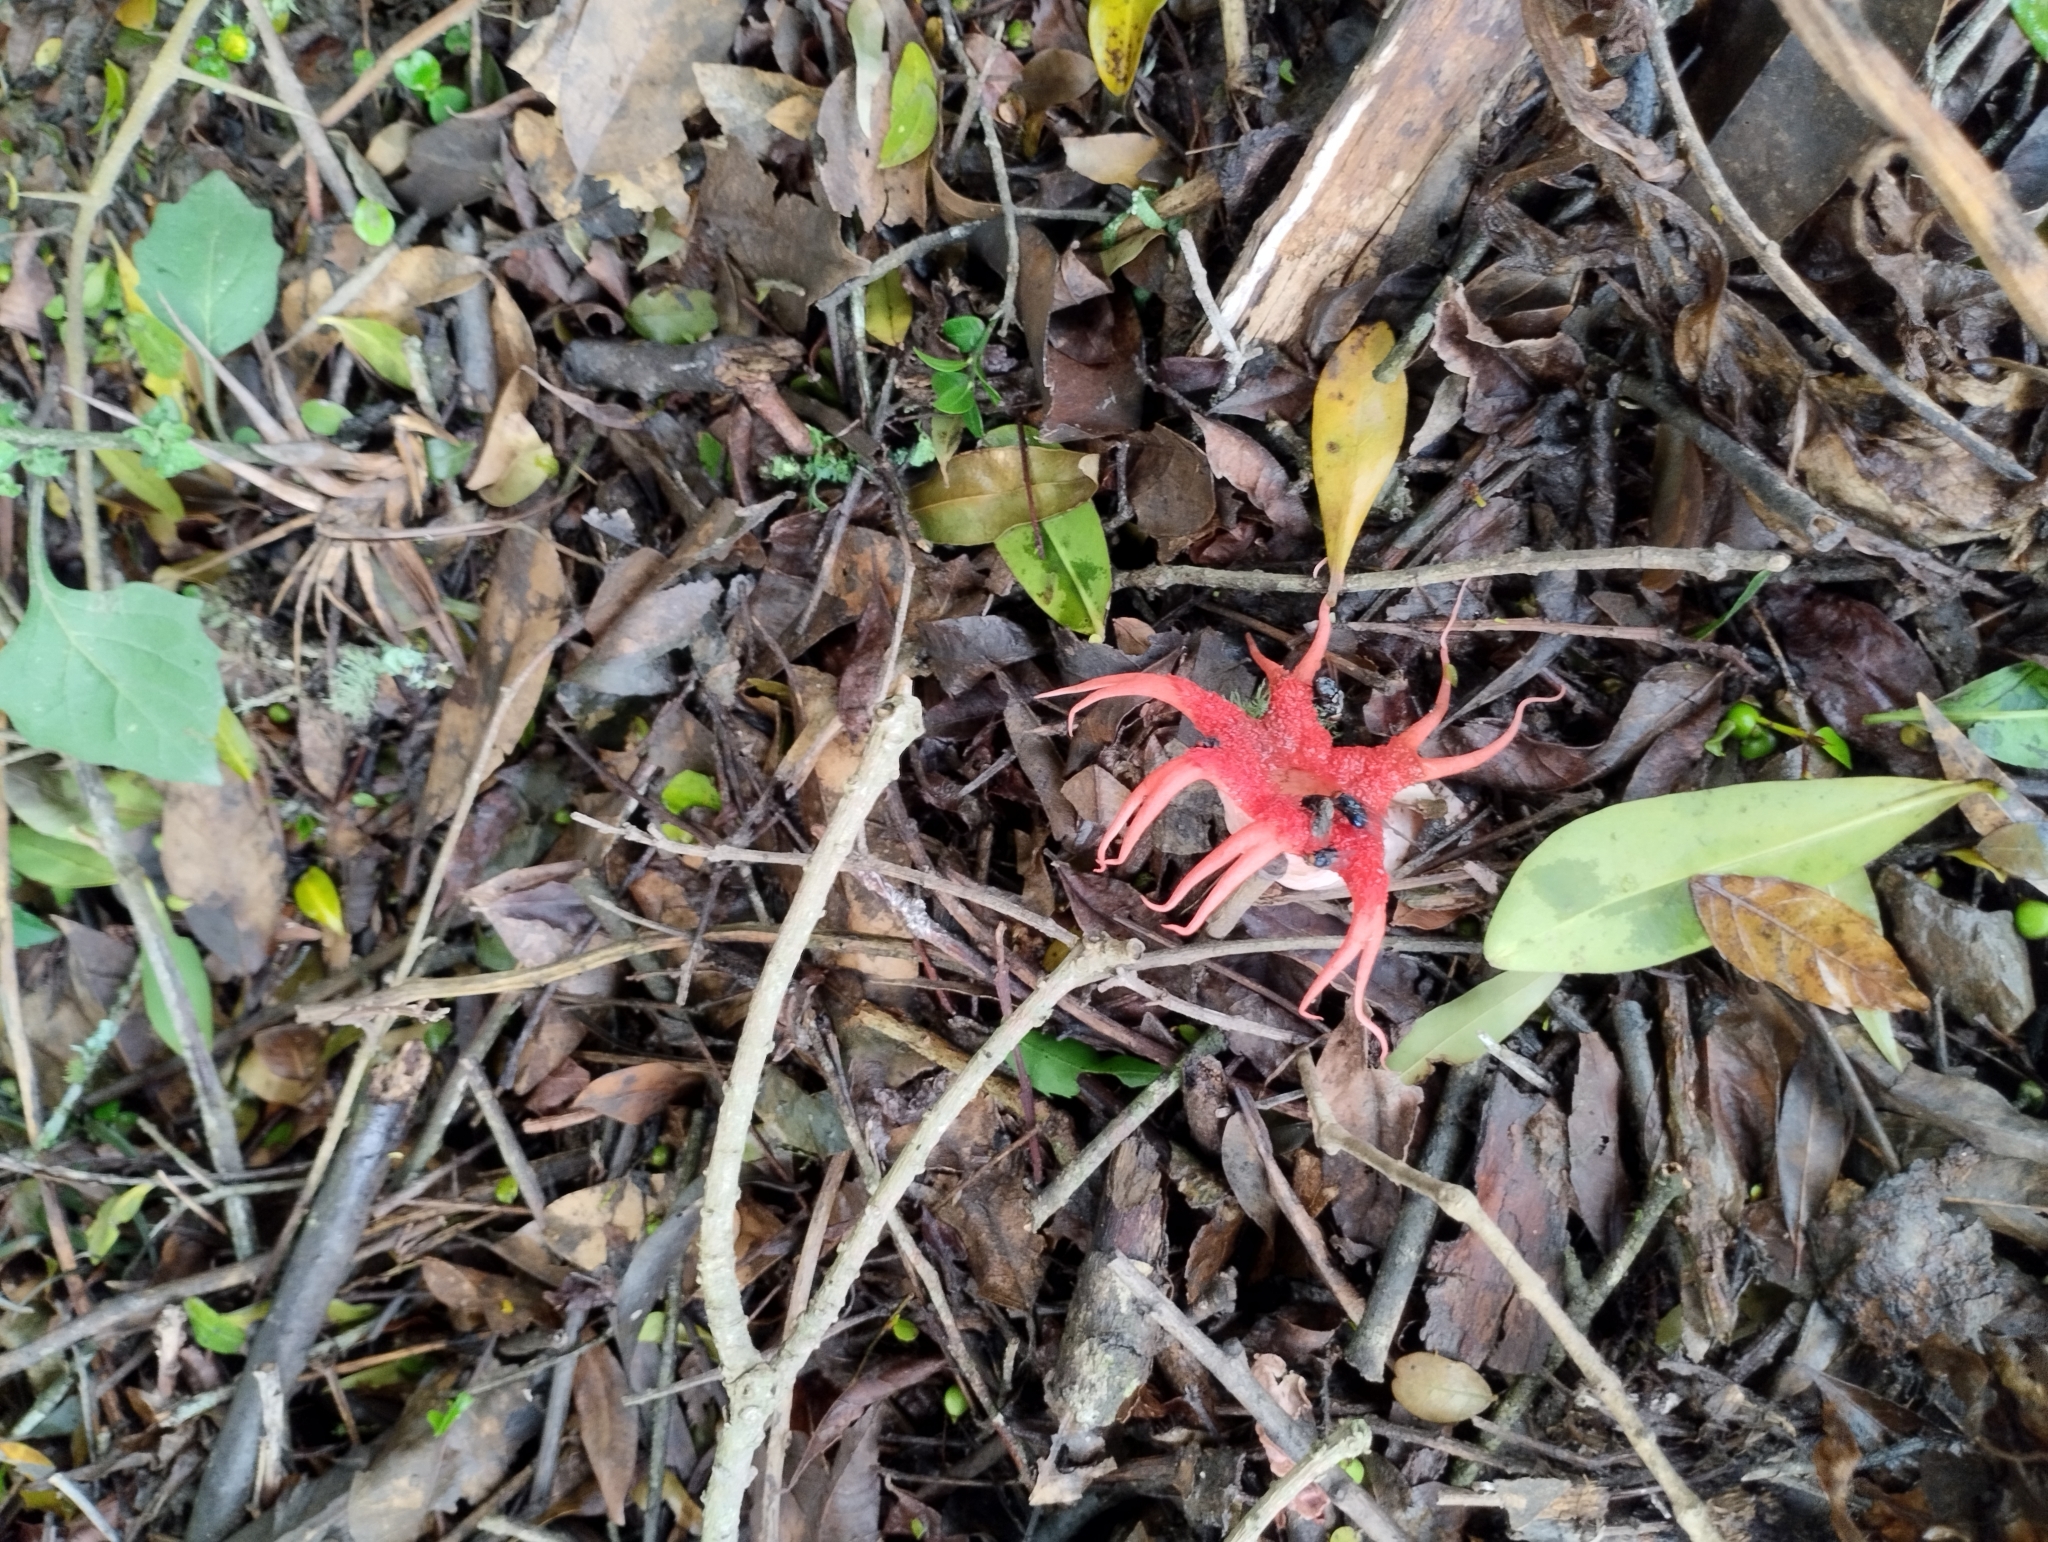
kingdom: Fungi
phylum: Basidiomycota
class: Agaricomycetes
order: Phallales
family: Phallaceae
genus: Aseroe
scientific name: Aseroe rubra
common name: Starfish fungus
